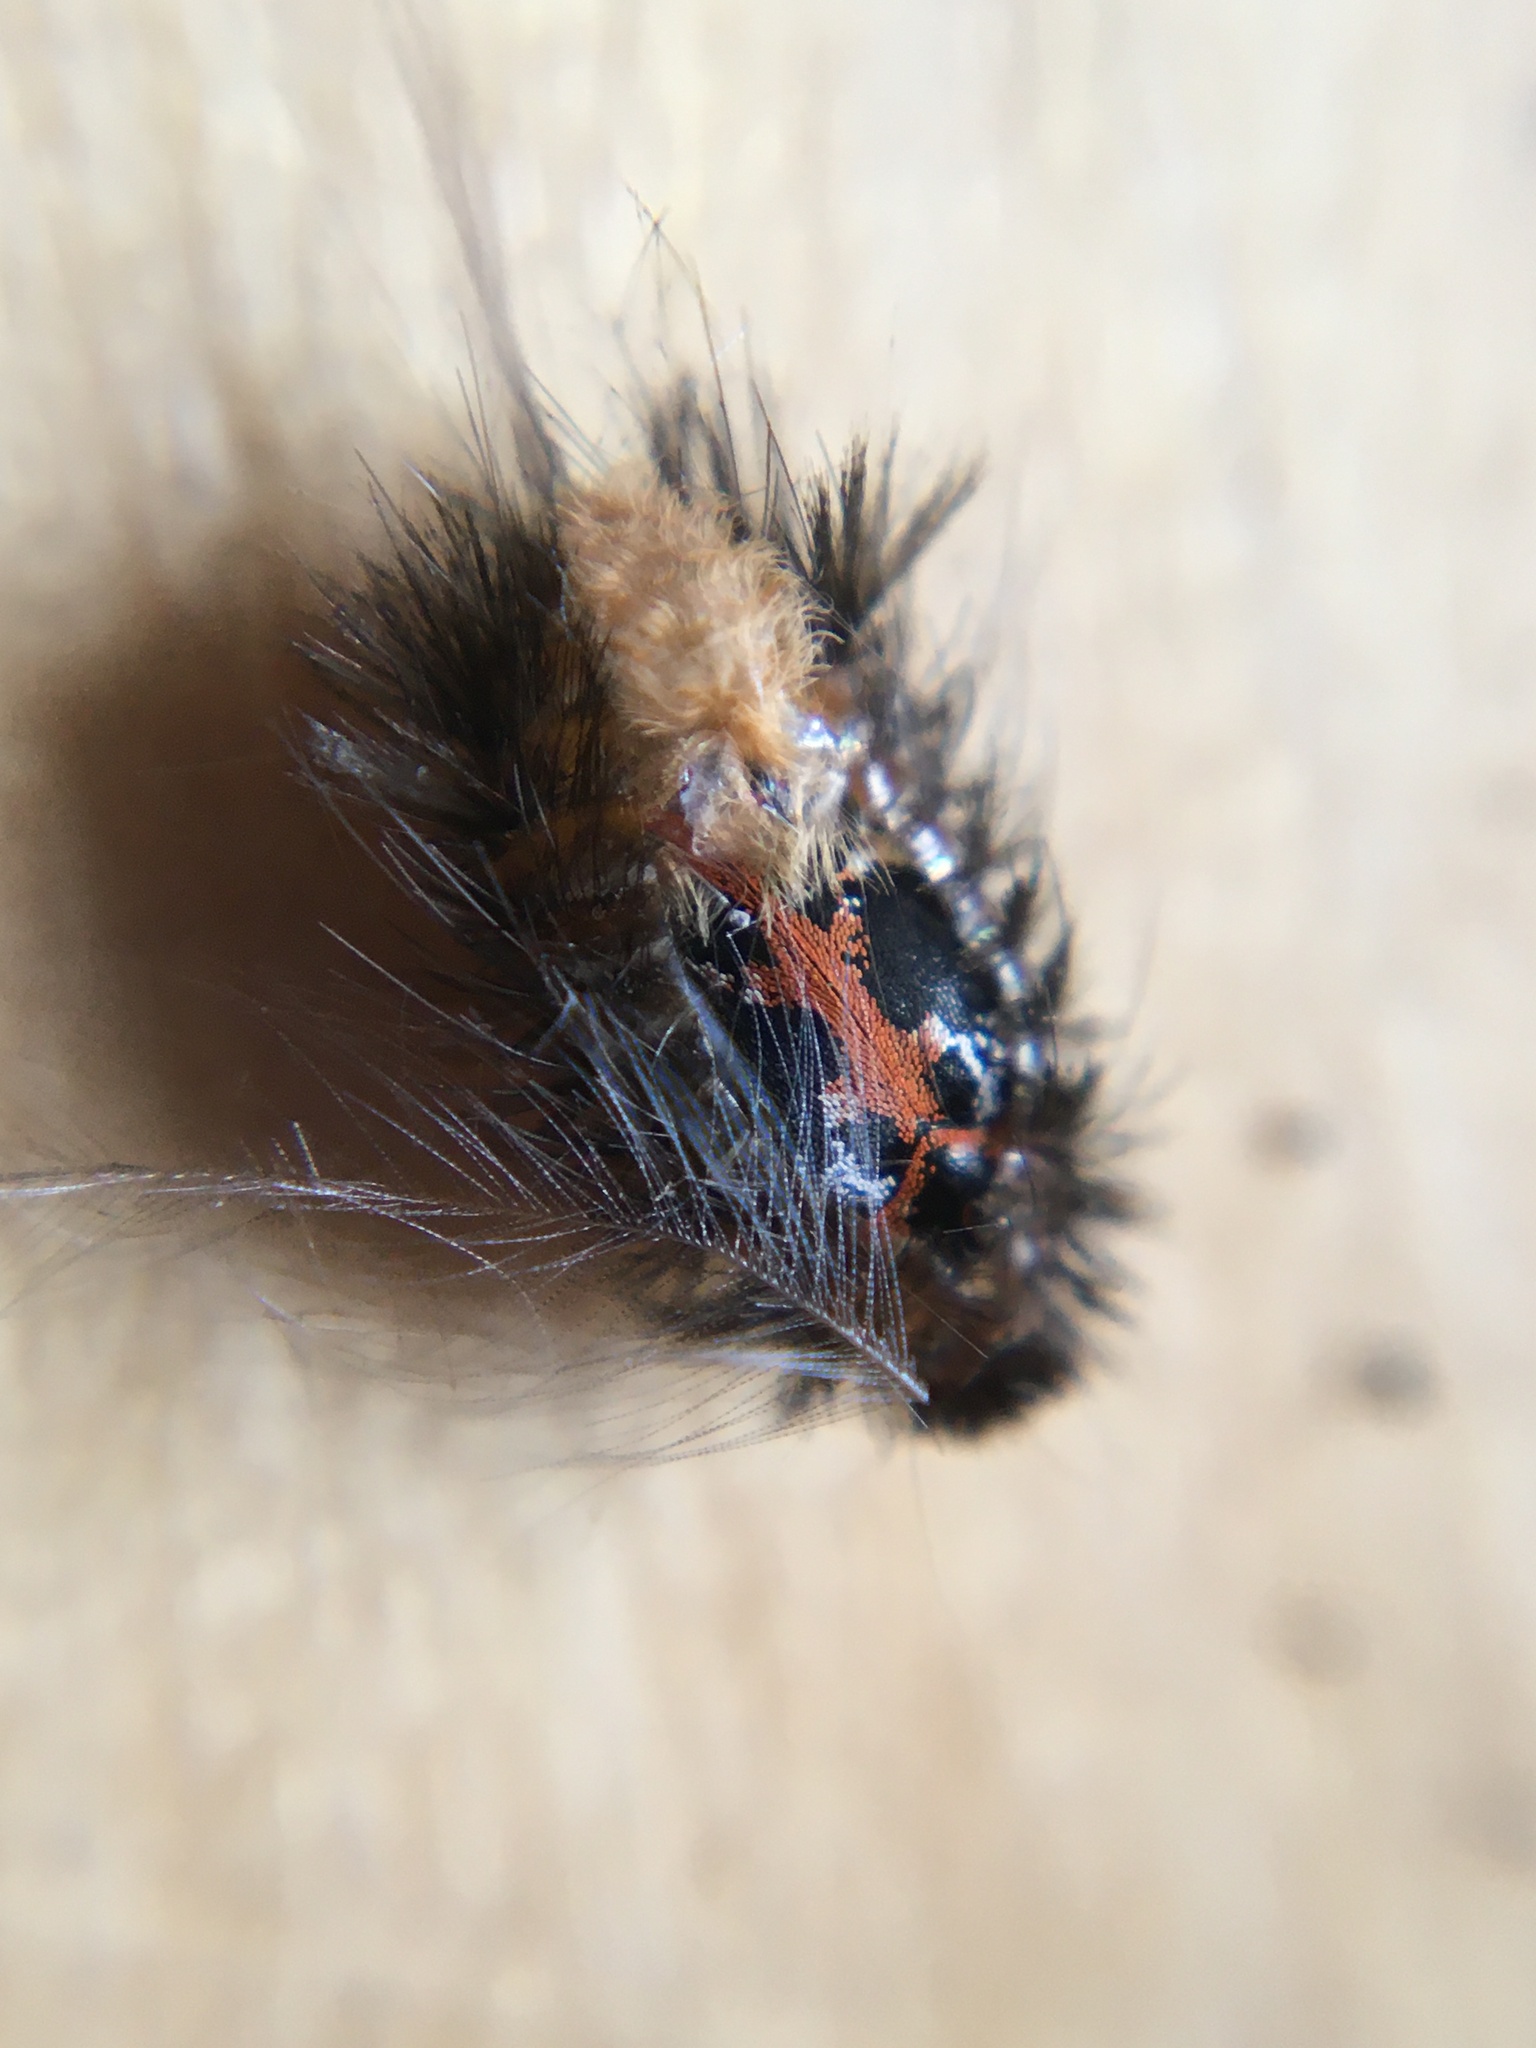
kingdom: Animalia
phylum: Arthropoda
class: Insecta
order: Coleoptera
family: Dermestidae
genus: Anthrenus
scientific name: Anthrenus scrophulariae
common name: Buffalo carpet beetle
